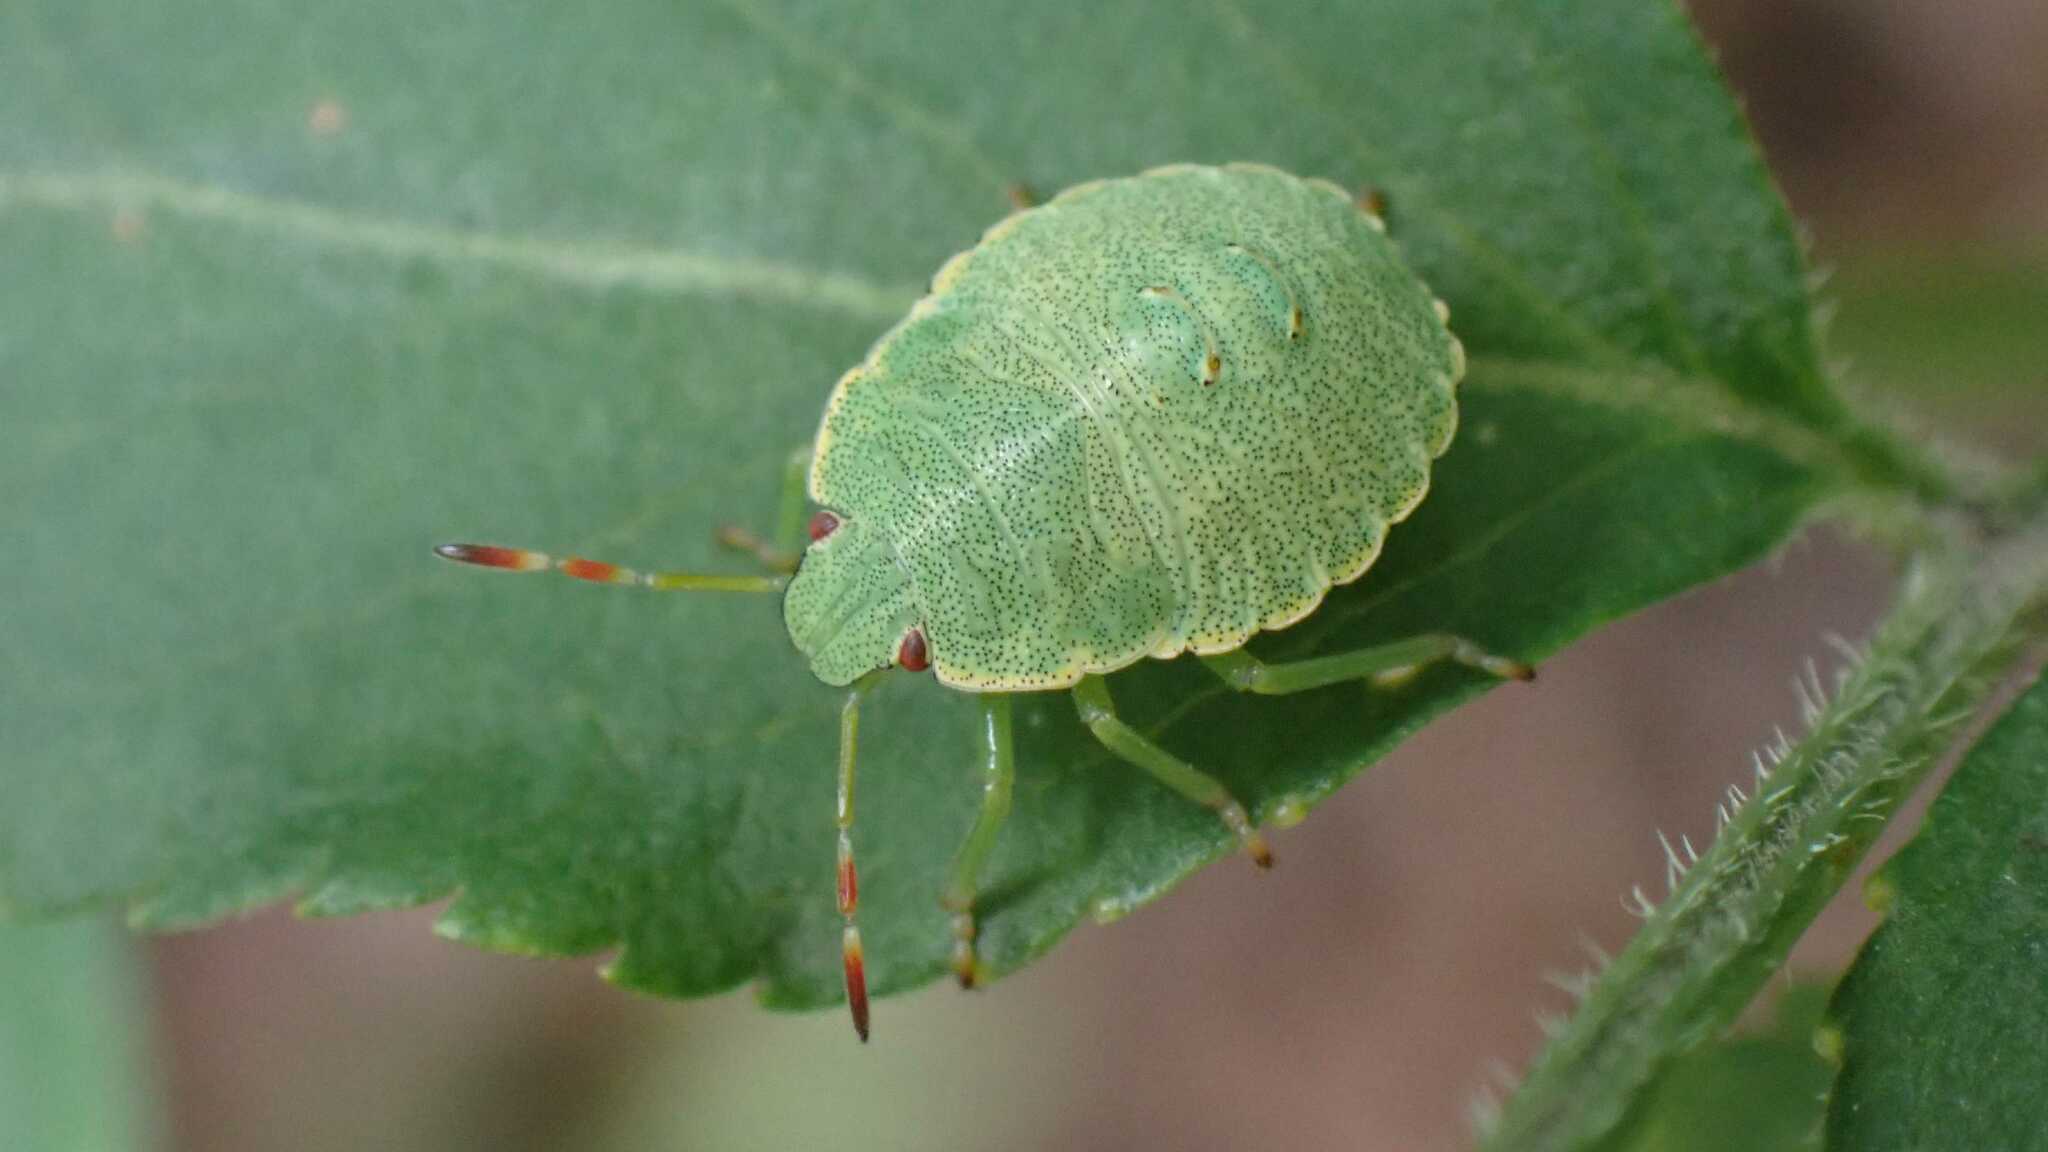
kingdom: Animalia
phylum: Arthropoda
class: Insecta
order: Hemiptera
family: Pentatomidae
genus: Palomena
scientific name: Palomena prasina
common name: Green shieldbug
